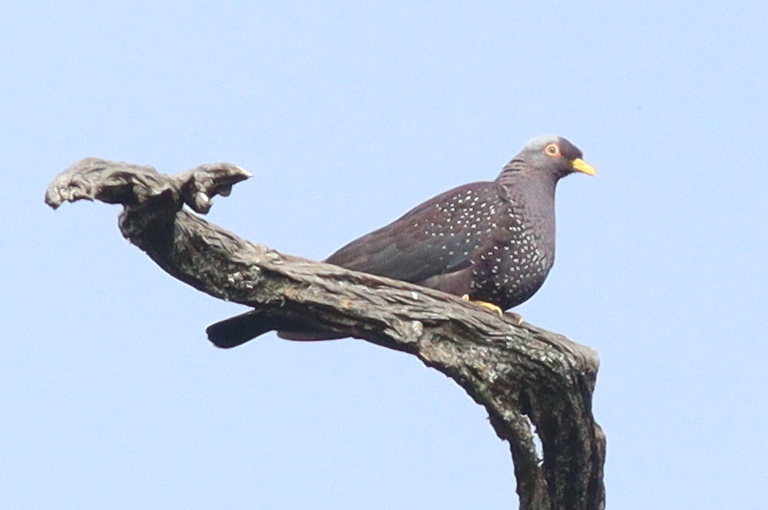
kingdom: Animalia
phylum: Chordata
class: Aves
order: Columbiformes
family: Columbidae
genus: Columba
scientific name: Columba arquatrix
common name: African olive pigeon
